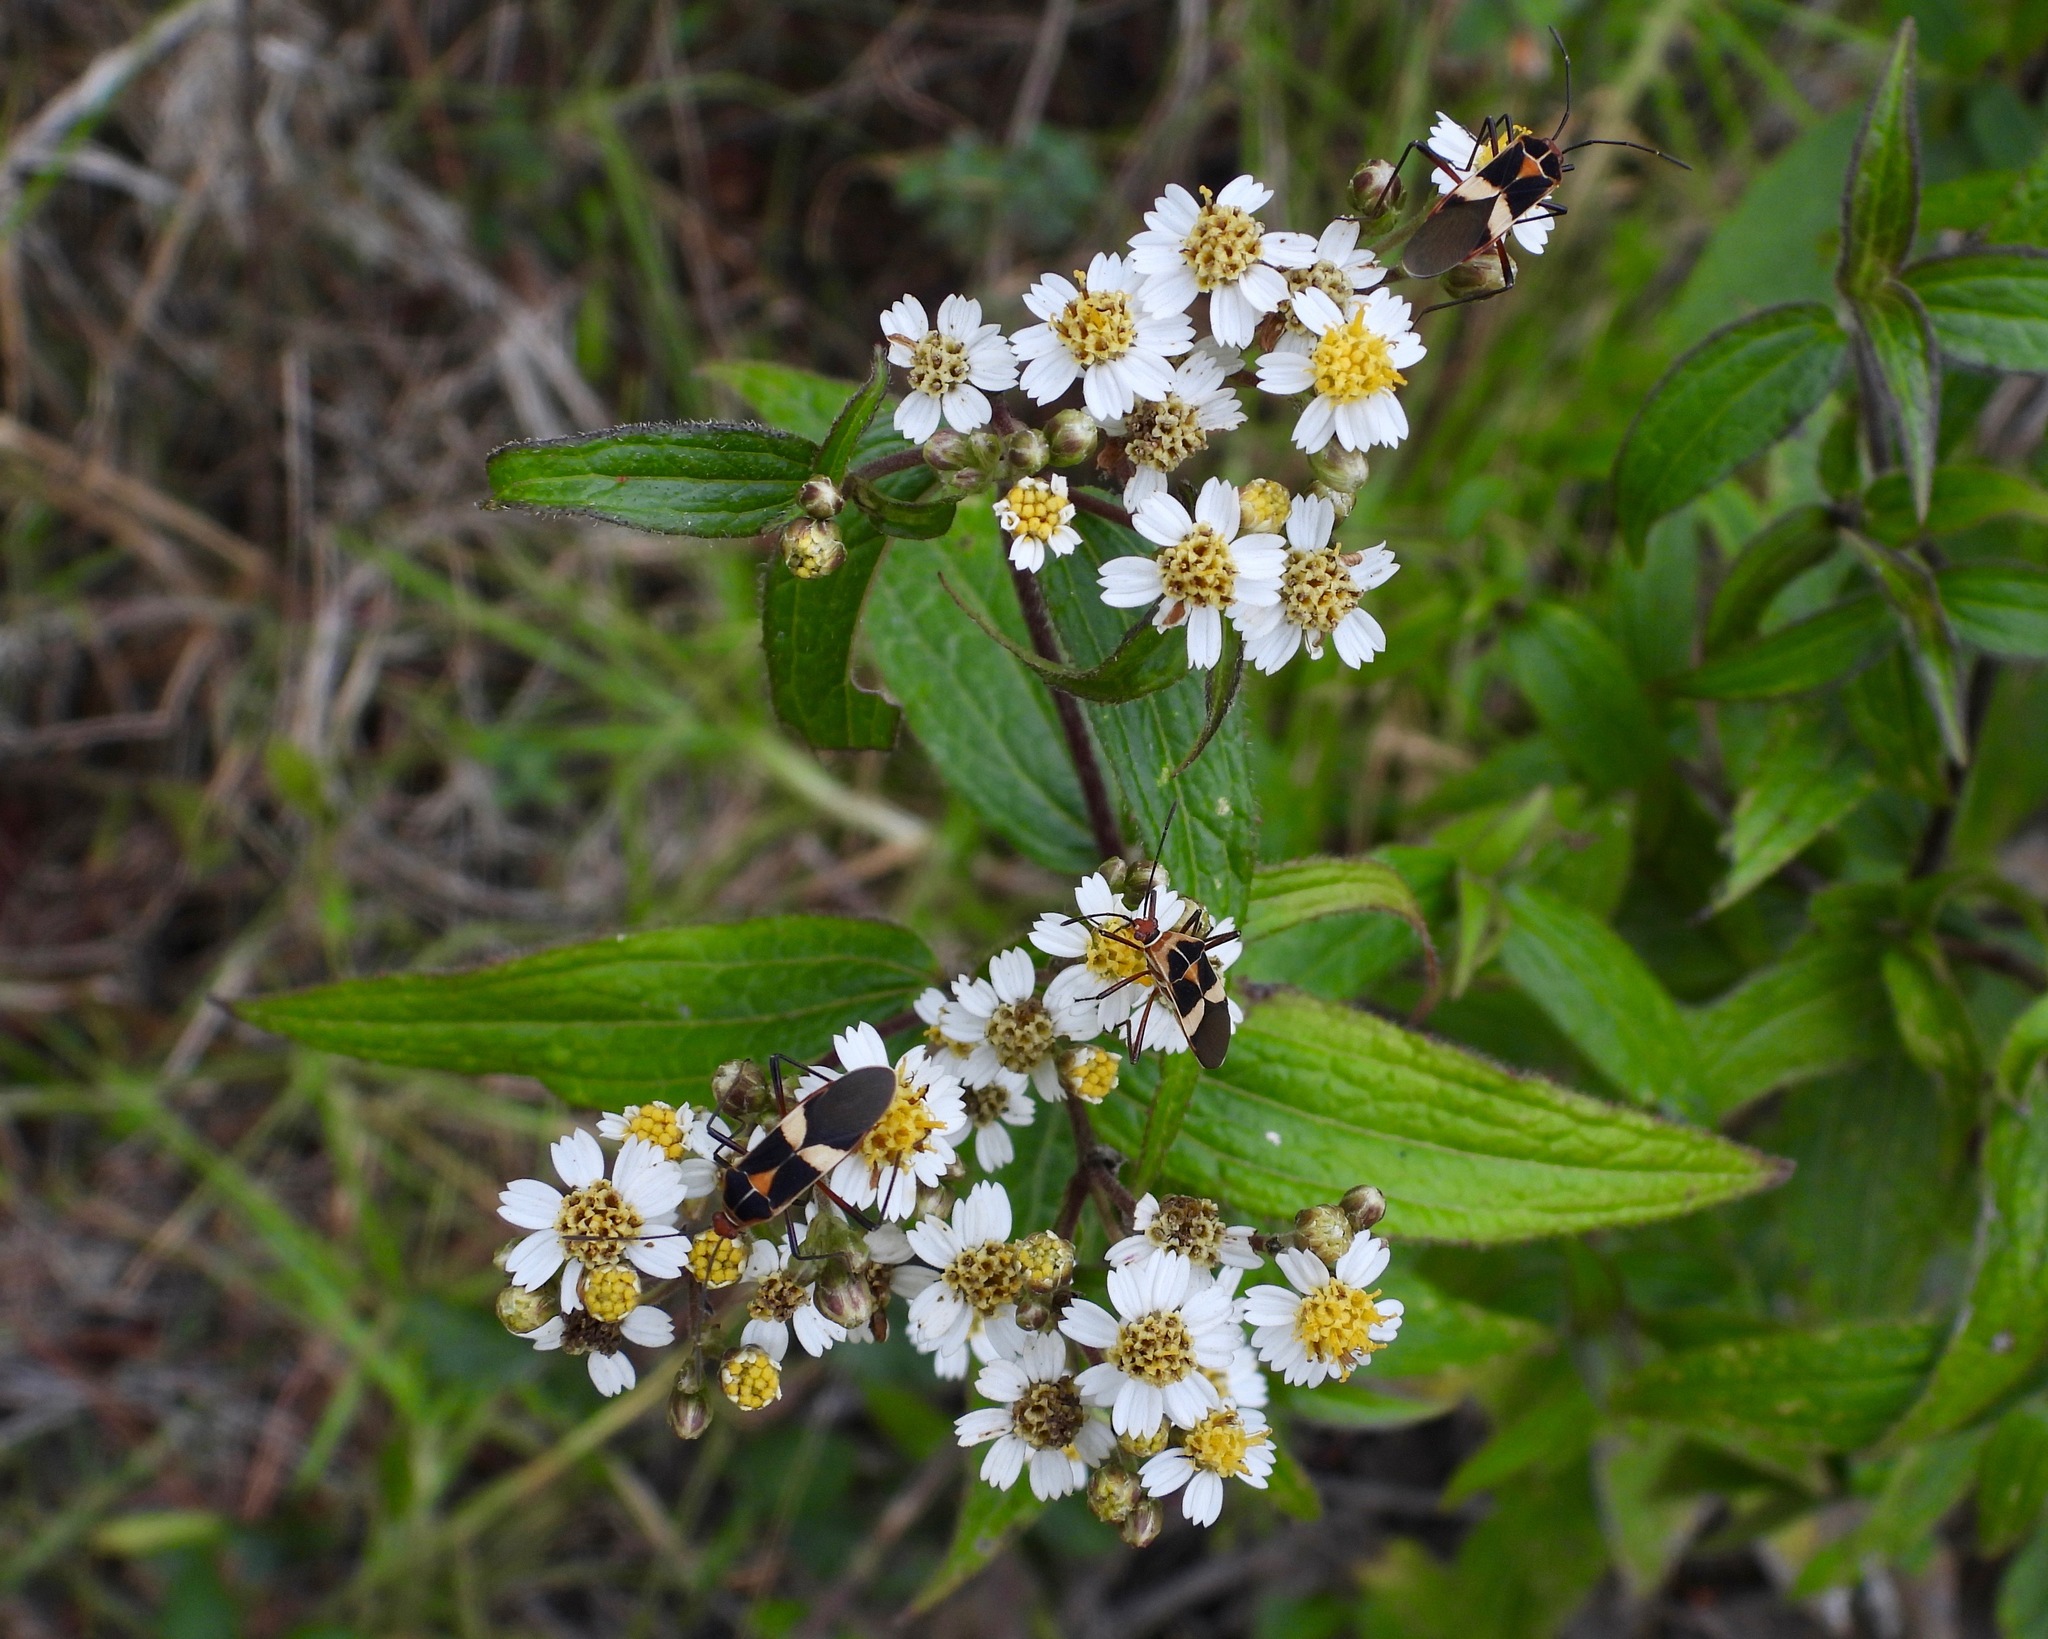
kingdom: Animalia
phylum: Arthropoda
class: Insecta
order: Hemiptera
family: Coreidae
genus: Hypselonotus
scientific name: Hypselonotus interruptus
